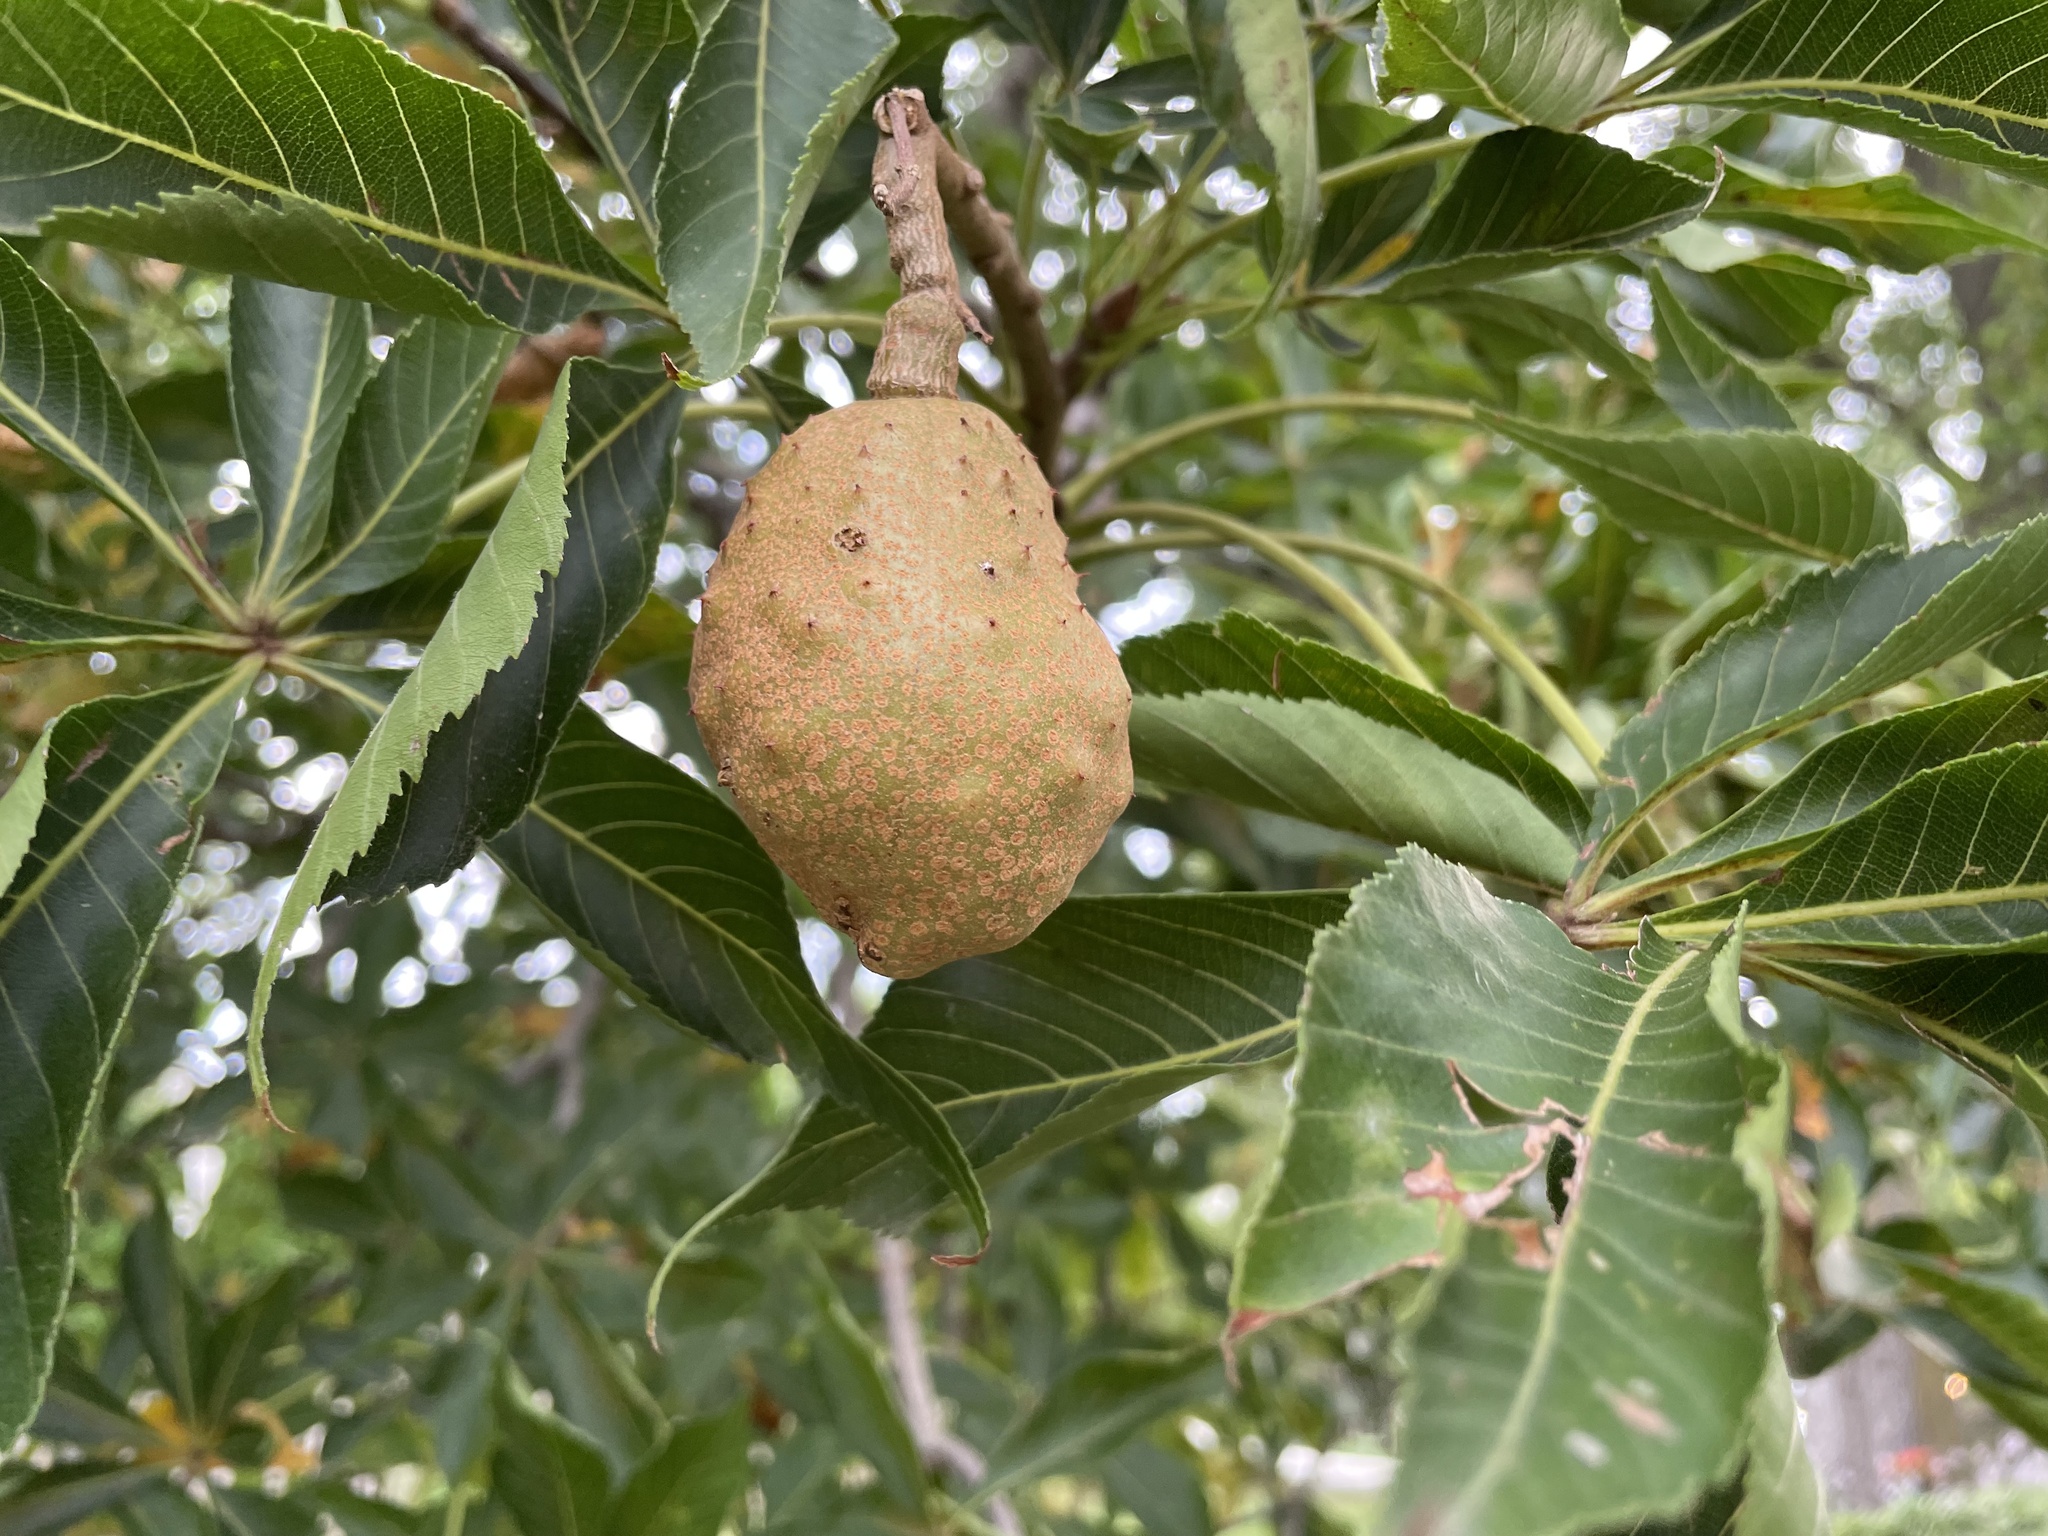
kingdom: Plantae
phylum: Tracheophyta
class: Magnoliopsida
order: Sapindales
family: Sapindaceae
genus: Aesculus
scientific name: Aesculus glabra
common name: Ohio buckeye
